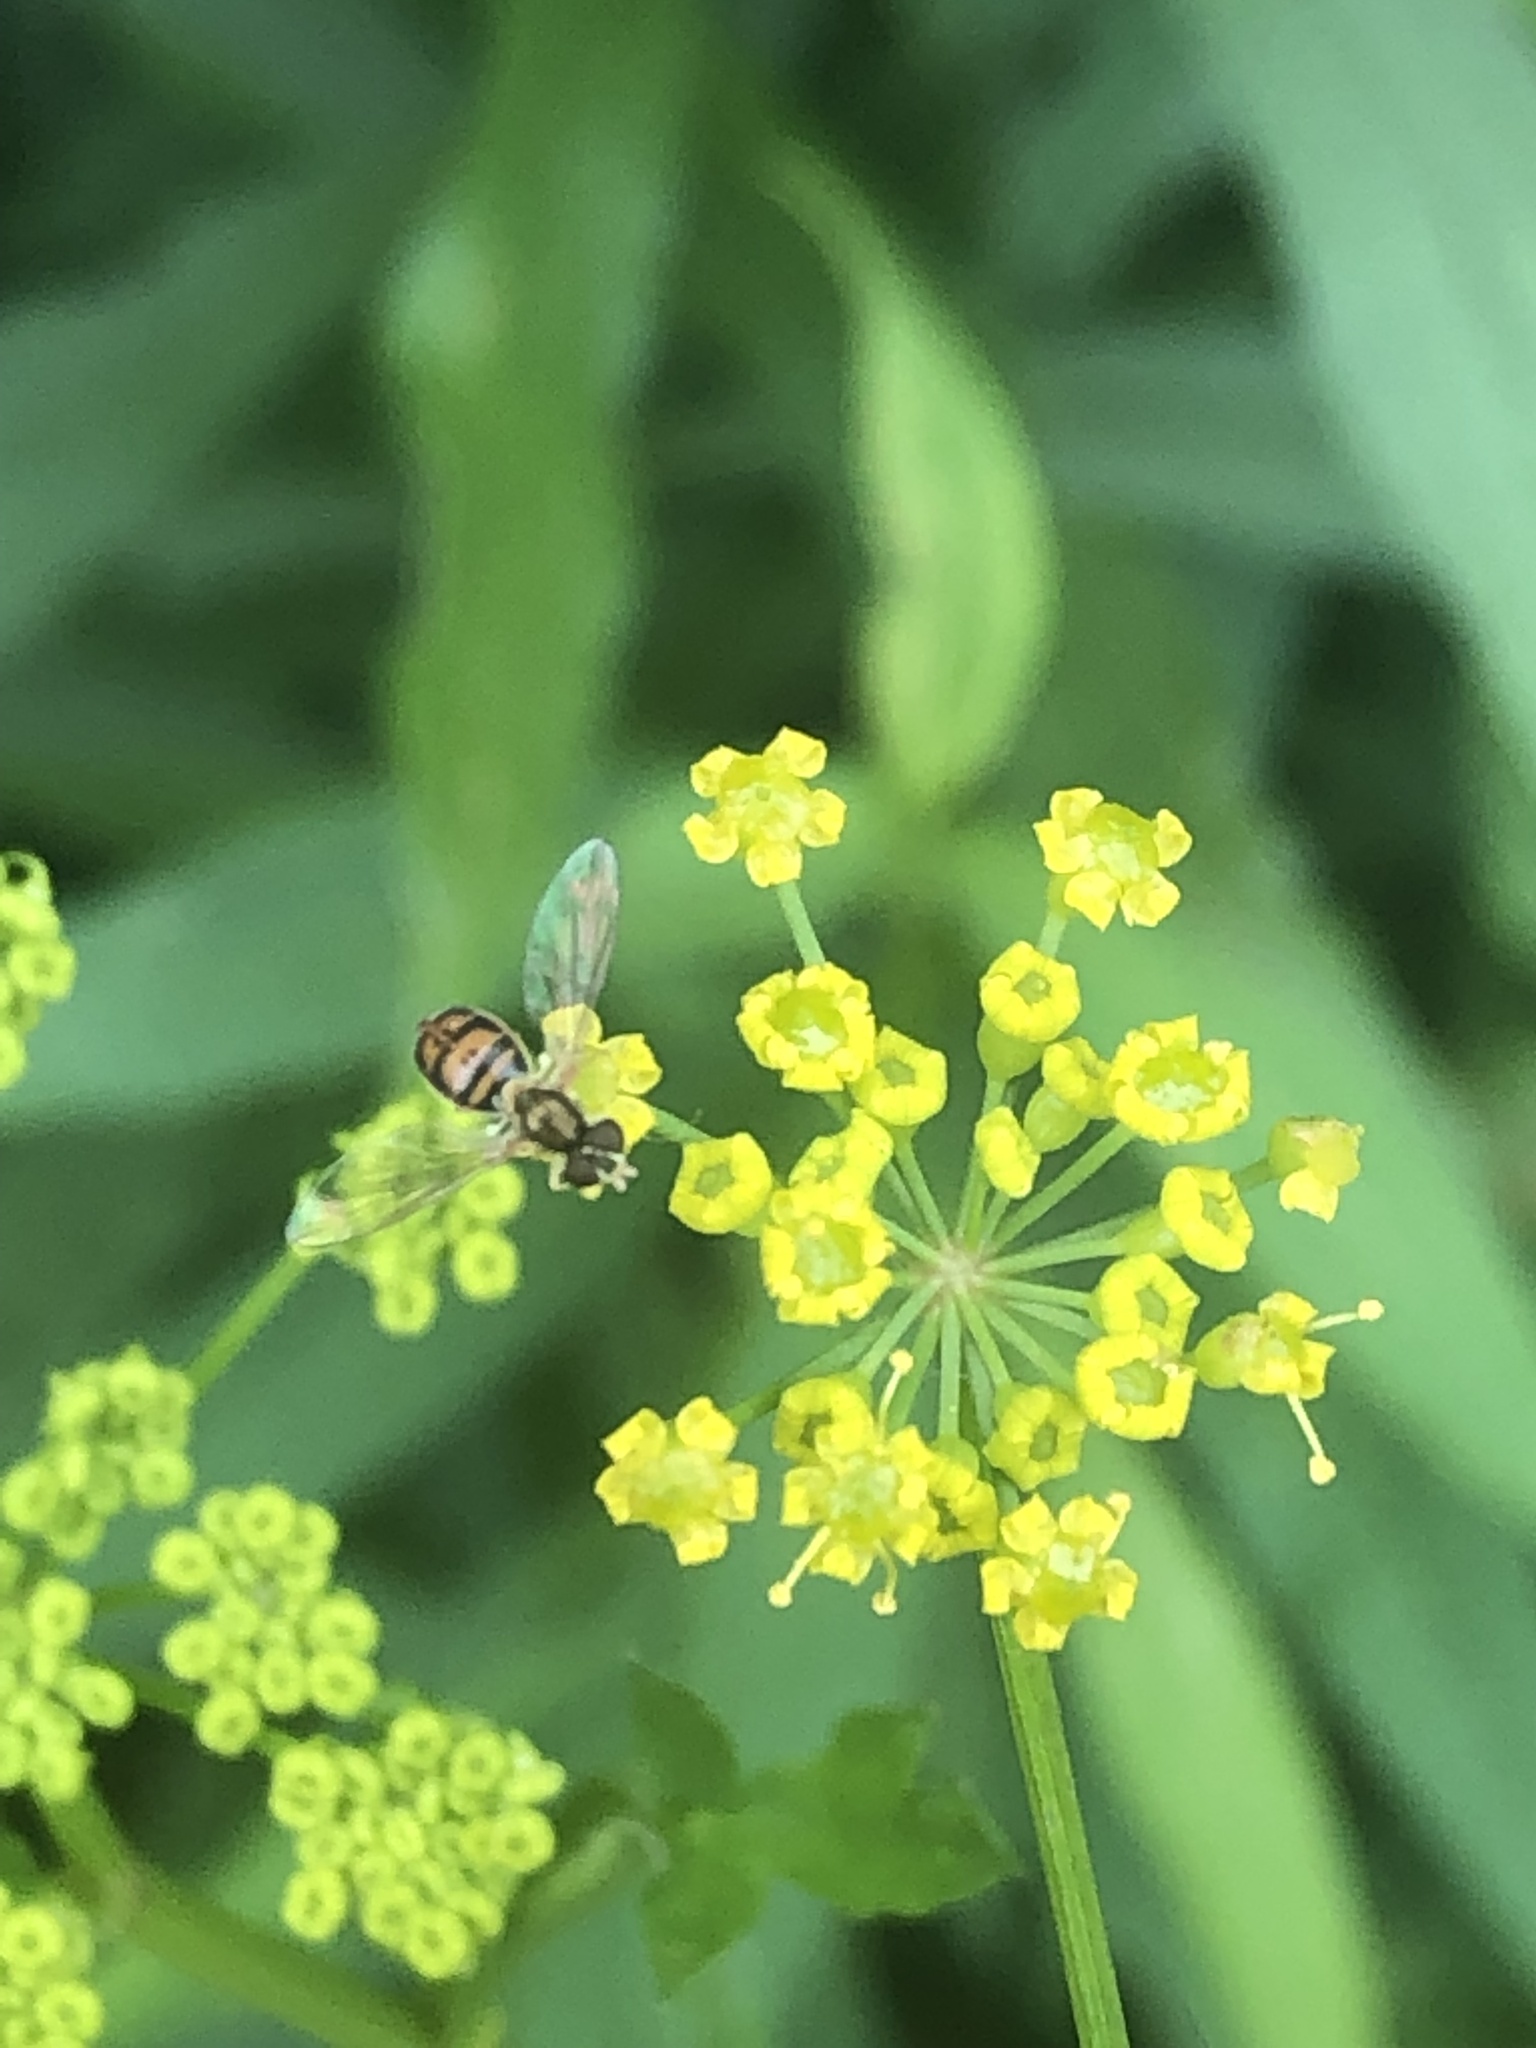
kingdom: Animalia
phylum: Arthropoda
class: Insecta
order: Diptera
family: Syrphidae
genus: Toxomerus
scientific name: Toxomerus marginatus
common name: Syrphid fly
